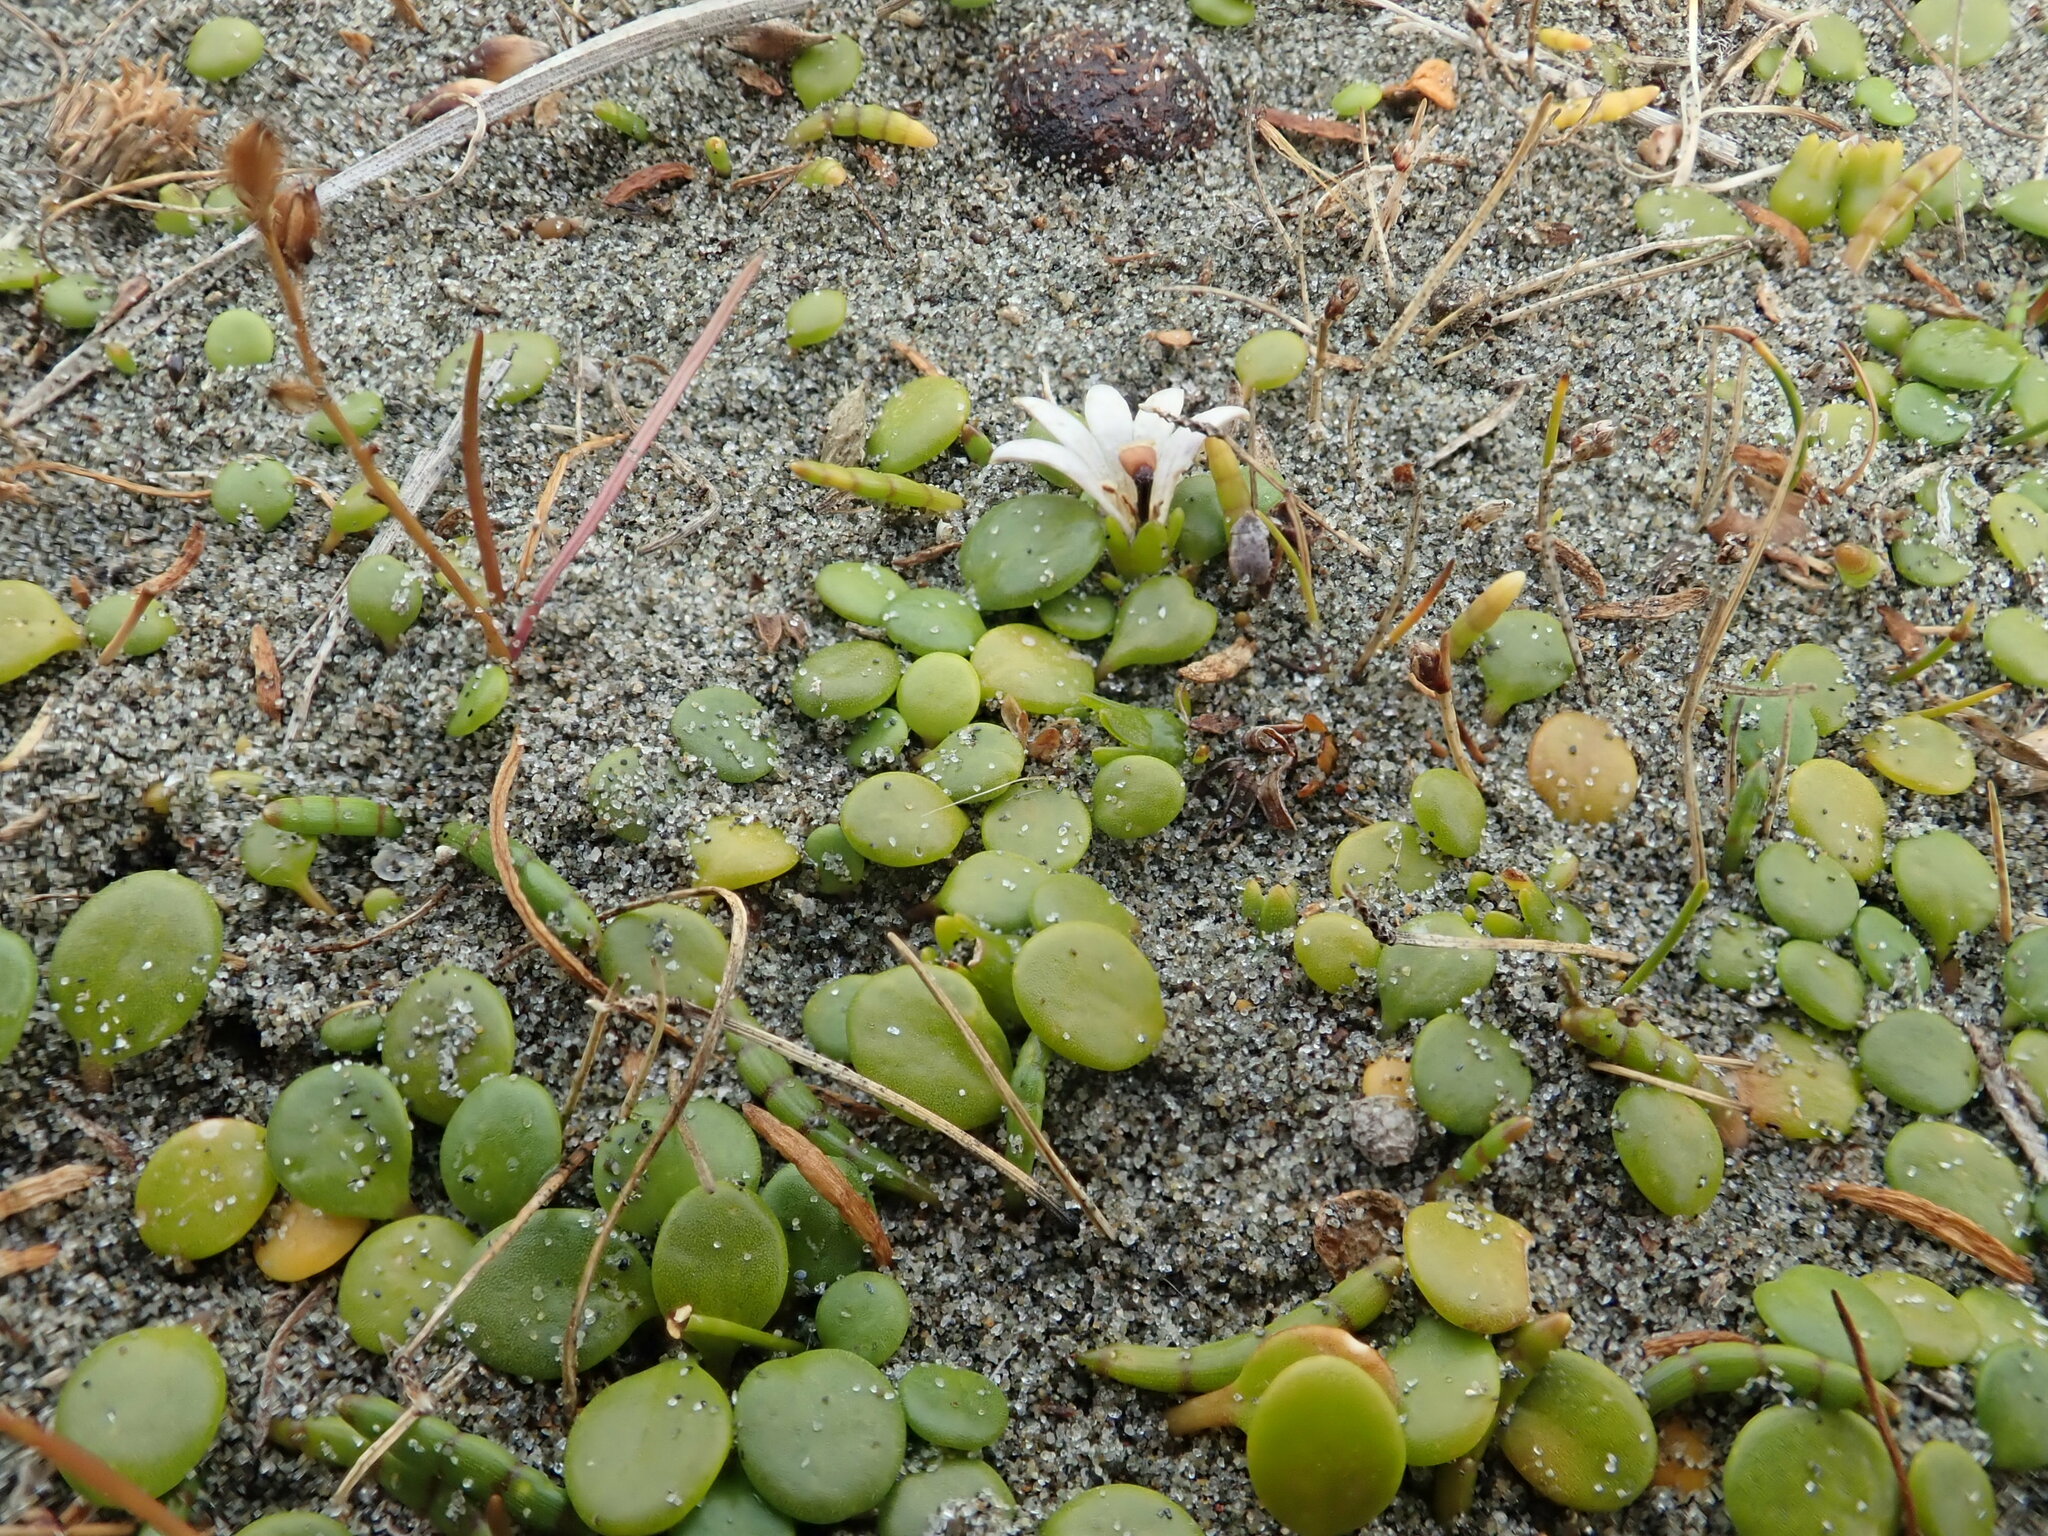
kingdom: Plantae
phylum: Tracheophyta
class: Magnoliopsida
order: Asterales
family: Goodeniaceae
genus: Goodenia
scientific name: Goodenia heenanii
